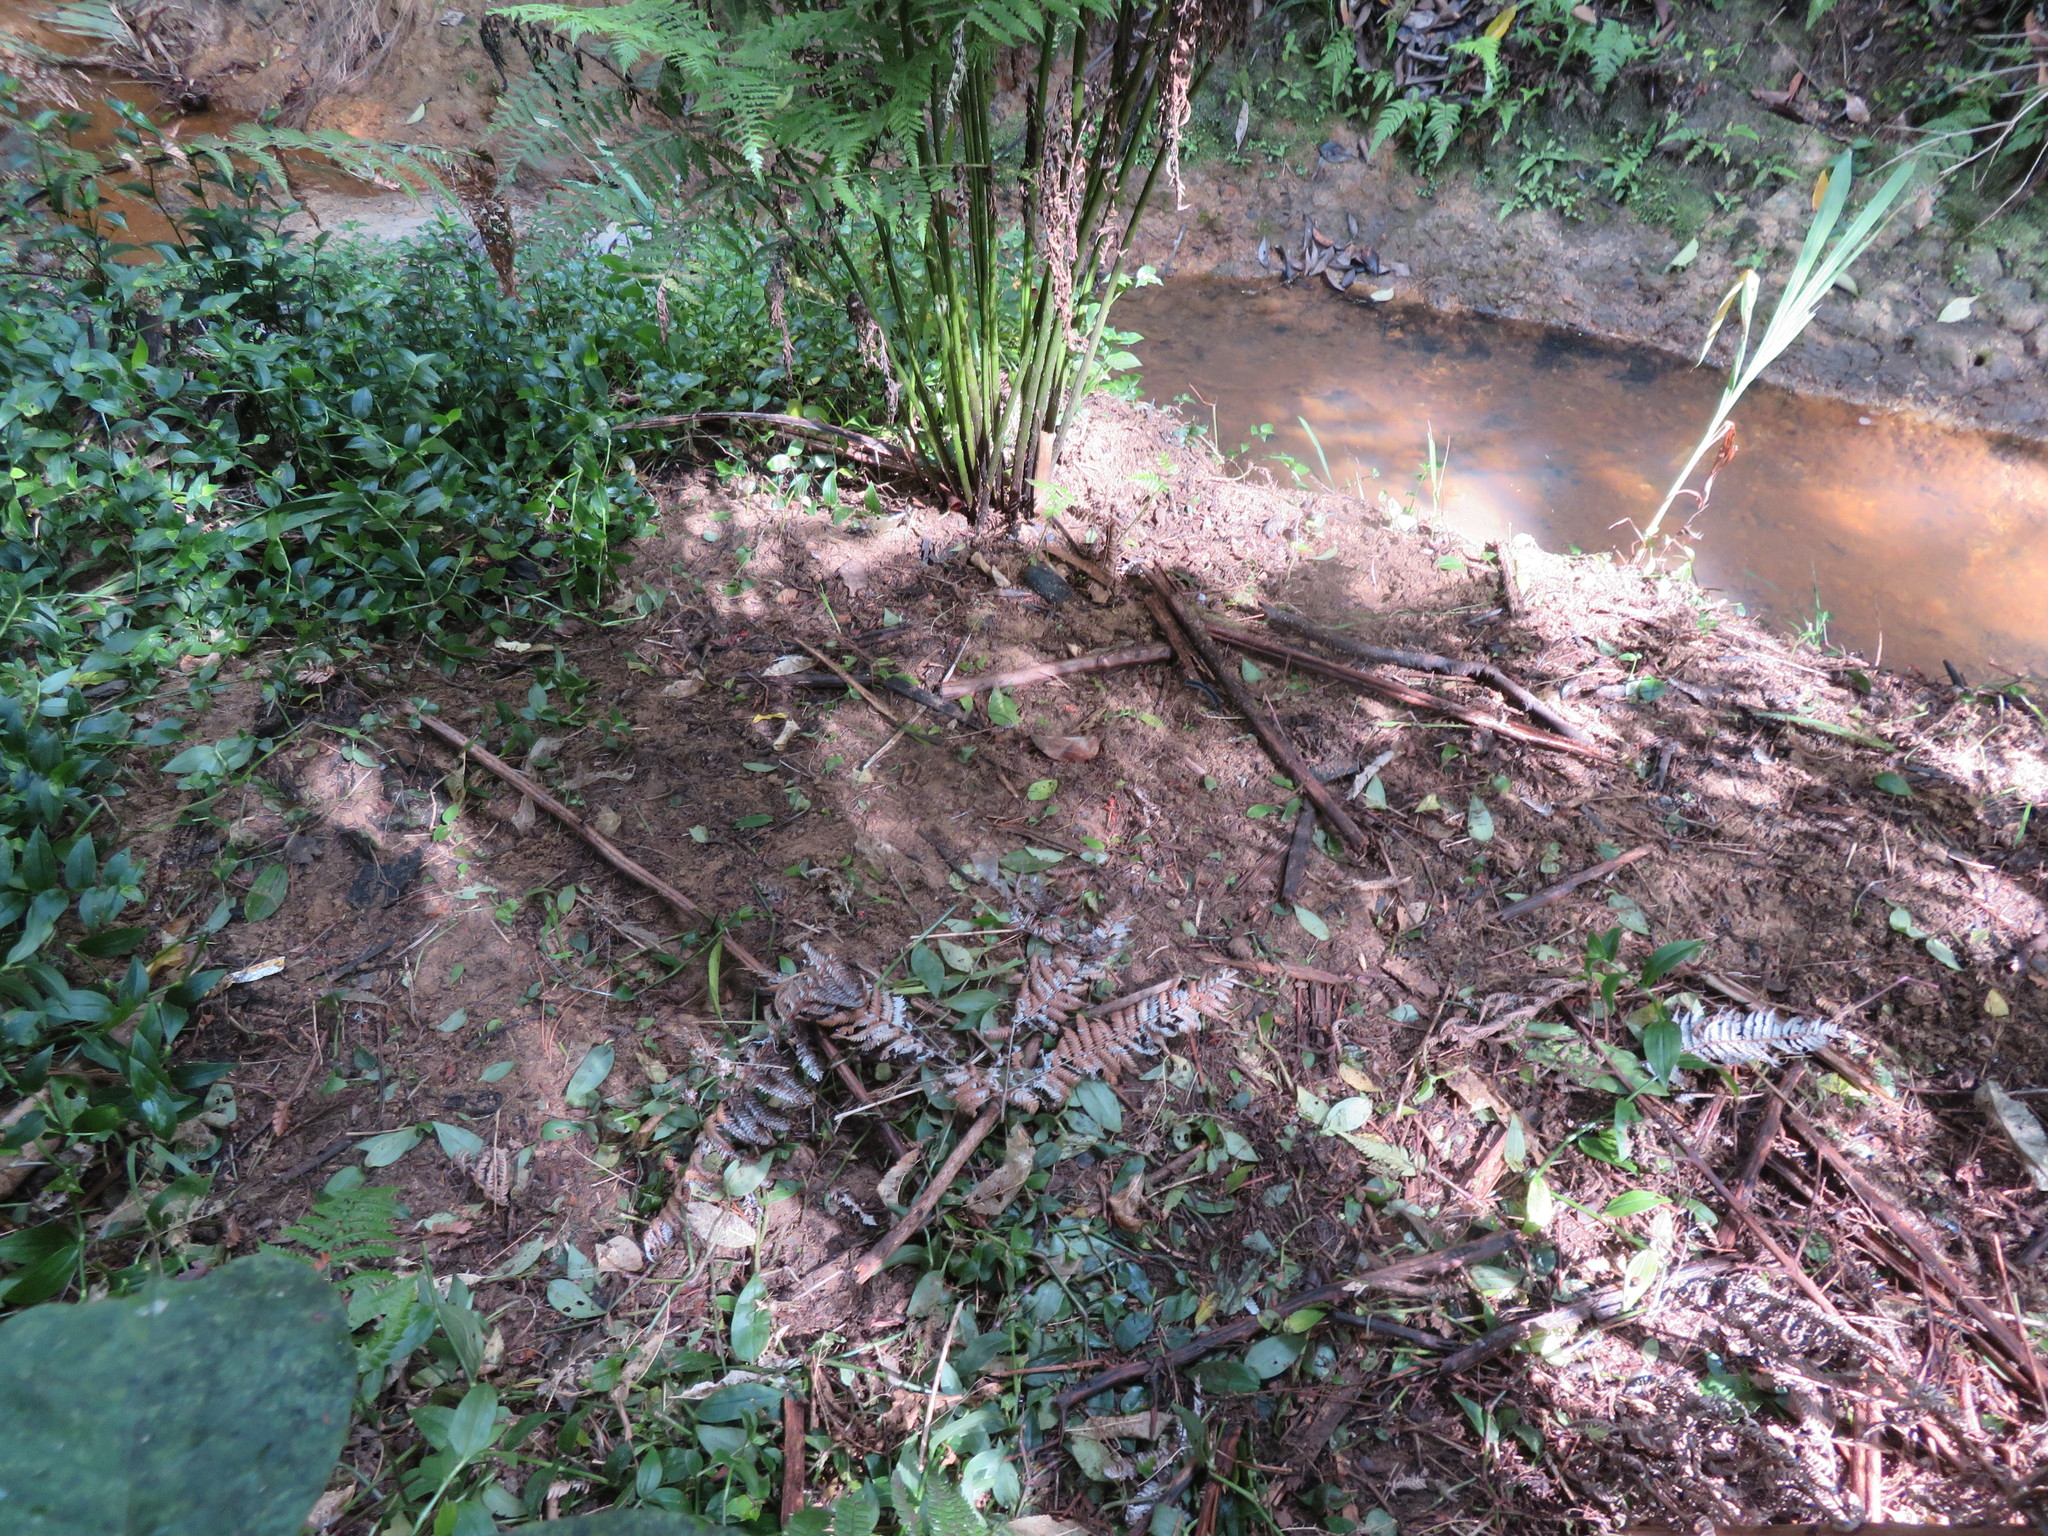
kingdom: Plantae
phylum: Tracheophyta
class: Liliopsida
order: Commelinales
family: Commelinaceae
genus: Tradescantia
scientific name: Tradescantia fluminensis
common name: Wandering-jew
